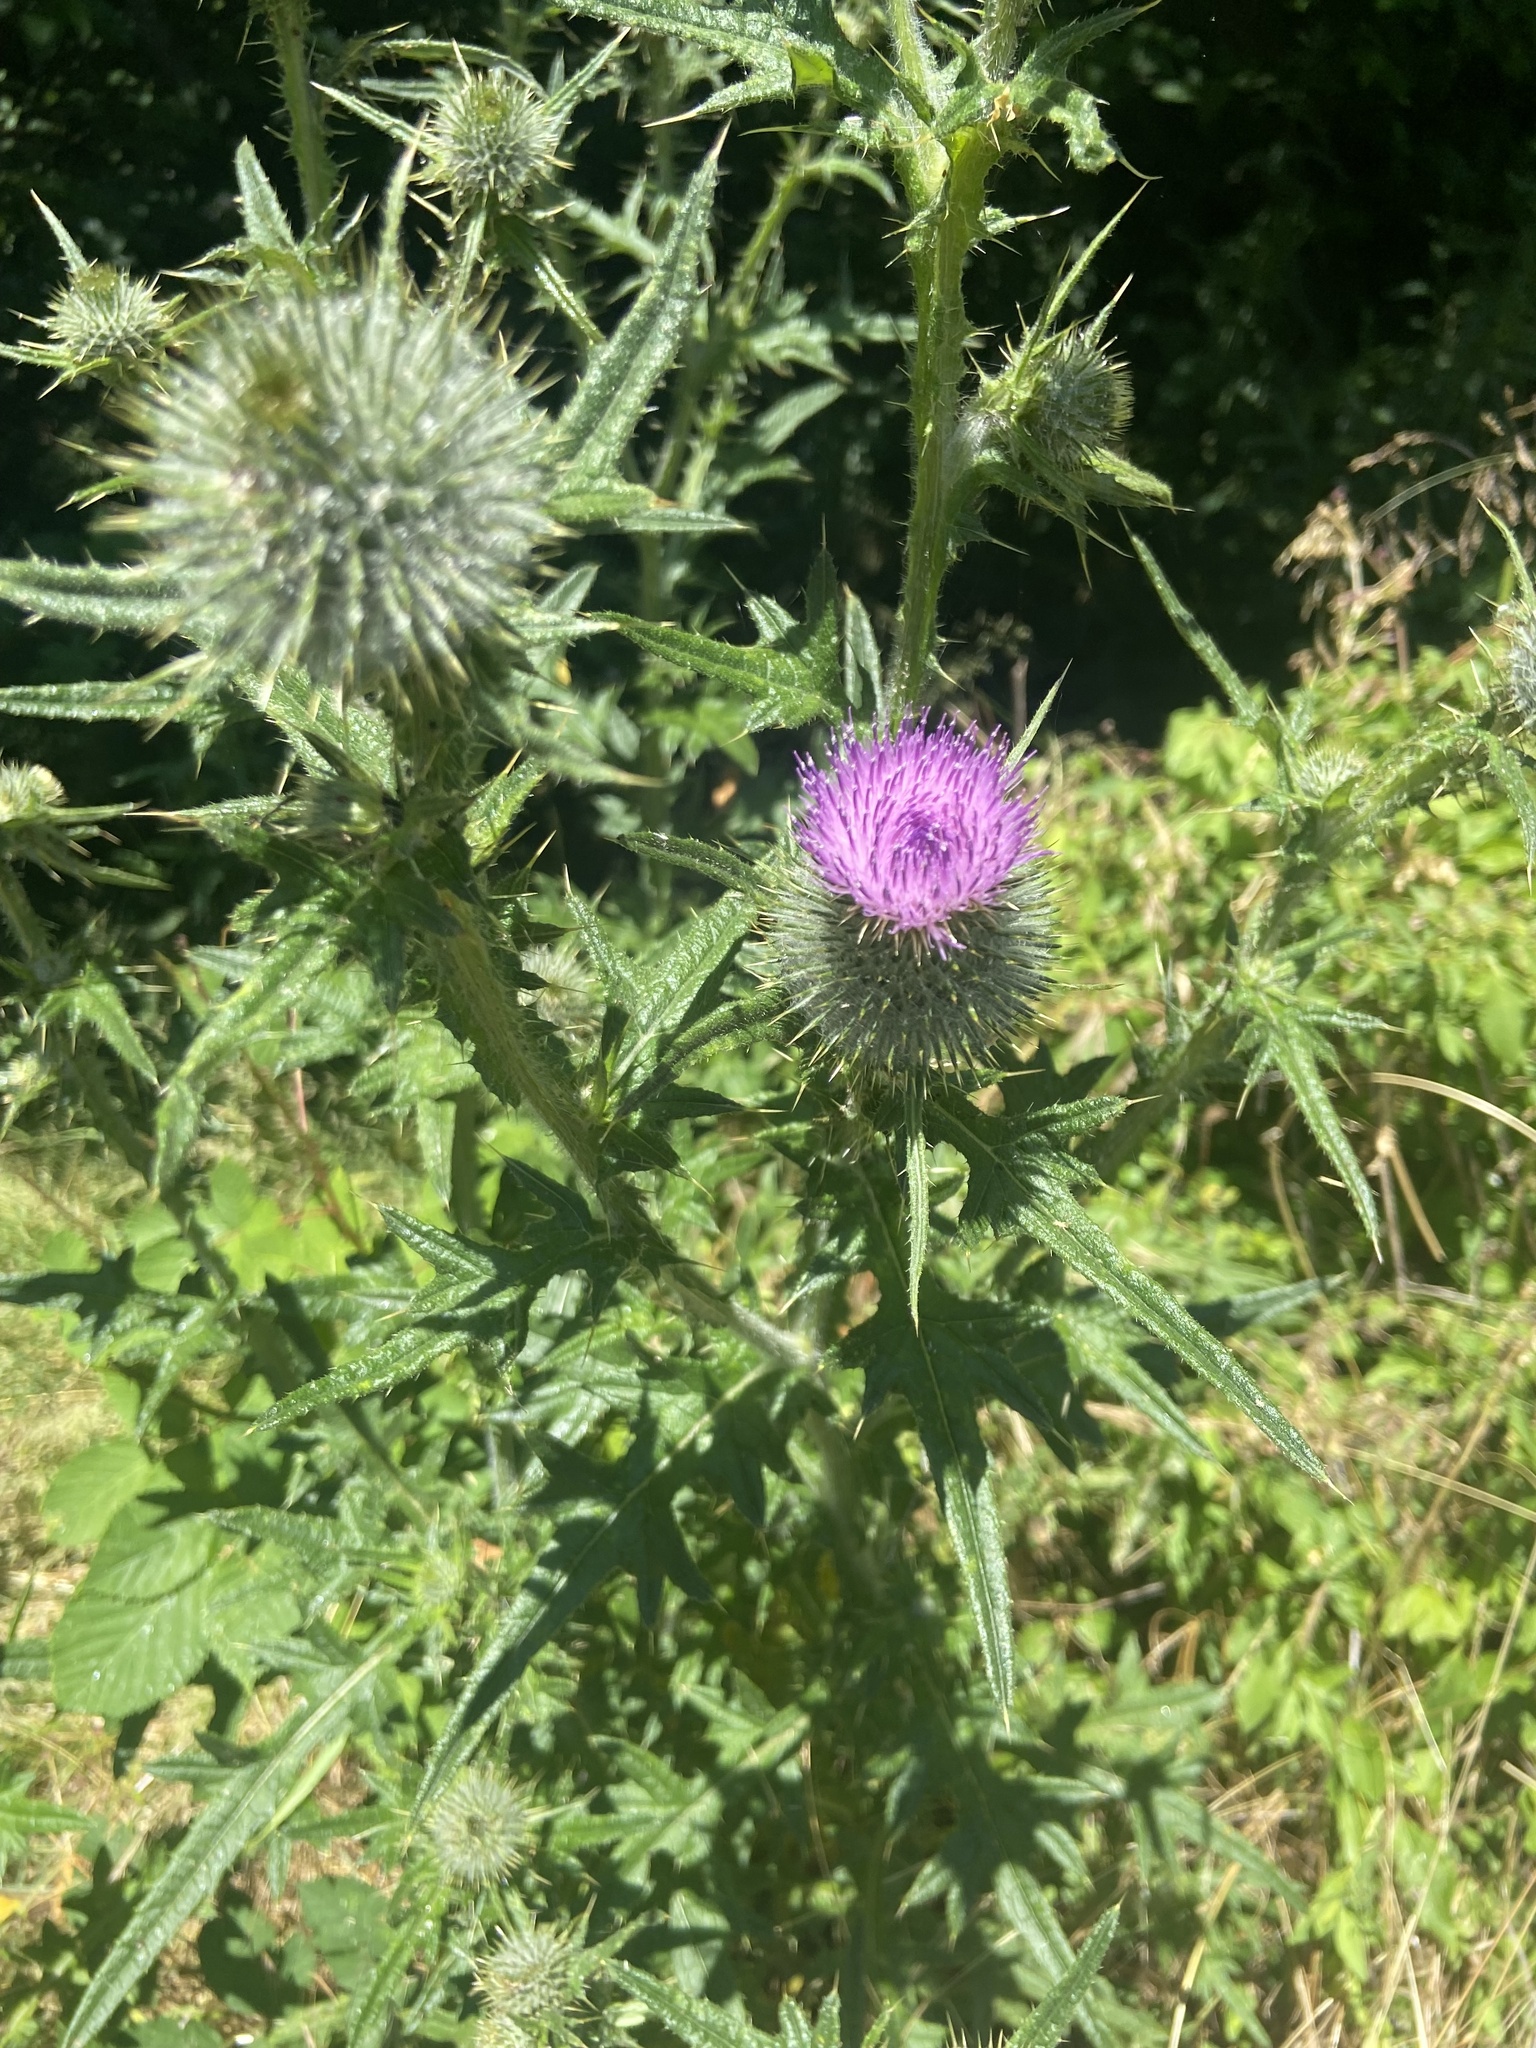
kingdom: Plantae
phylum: Tracheophyta
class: Magnoliopsida
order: Asterales
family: Asteraceae
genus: Cirsium
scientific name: Cirsium vulgare
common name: Bull thistle
